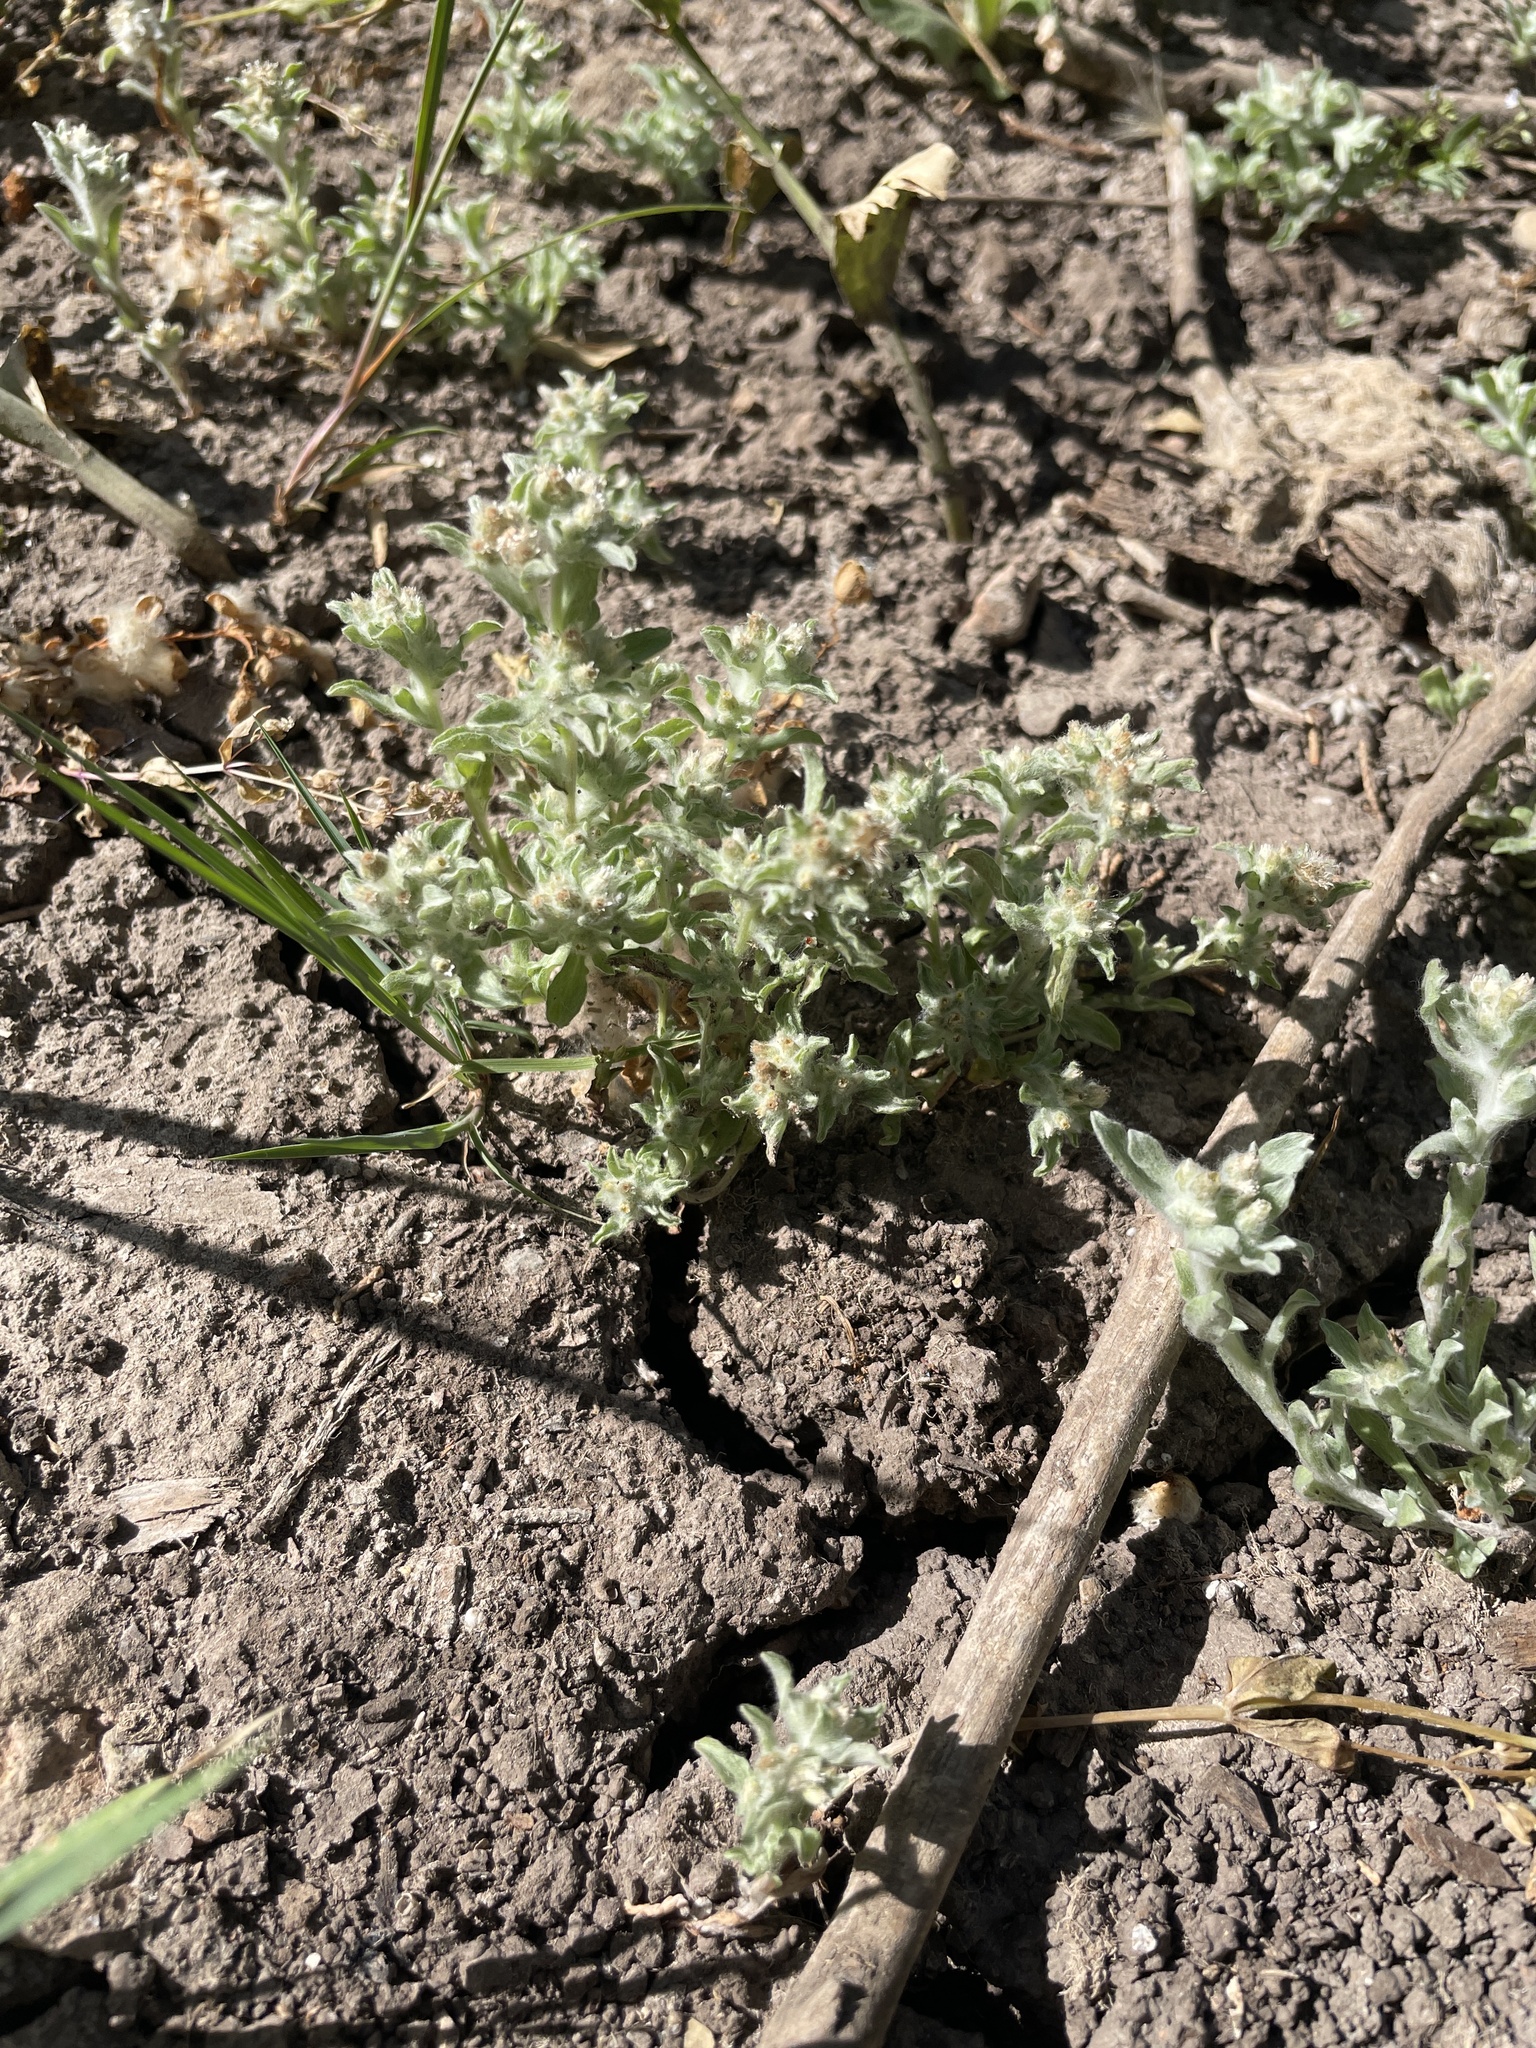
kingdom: Plantae
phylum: Tracheophyta
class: Magnoliopsida
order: Asterales
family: Asteraceae
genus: Gnaphalium
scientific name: Gnaphalium palustre
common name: Western marsh cudweed
